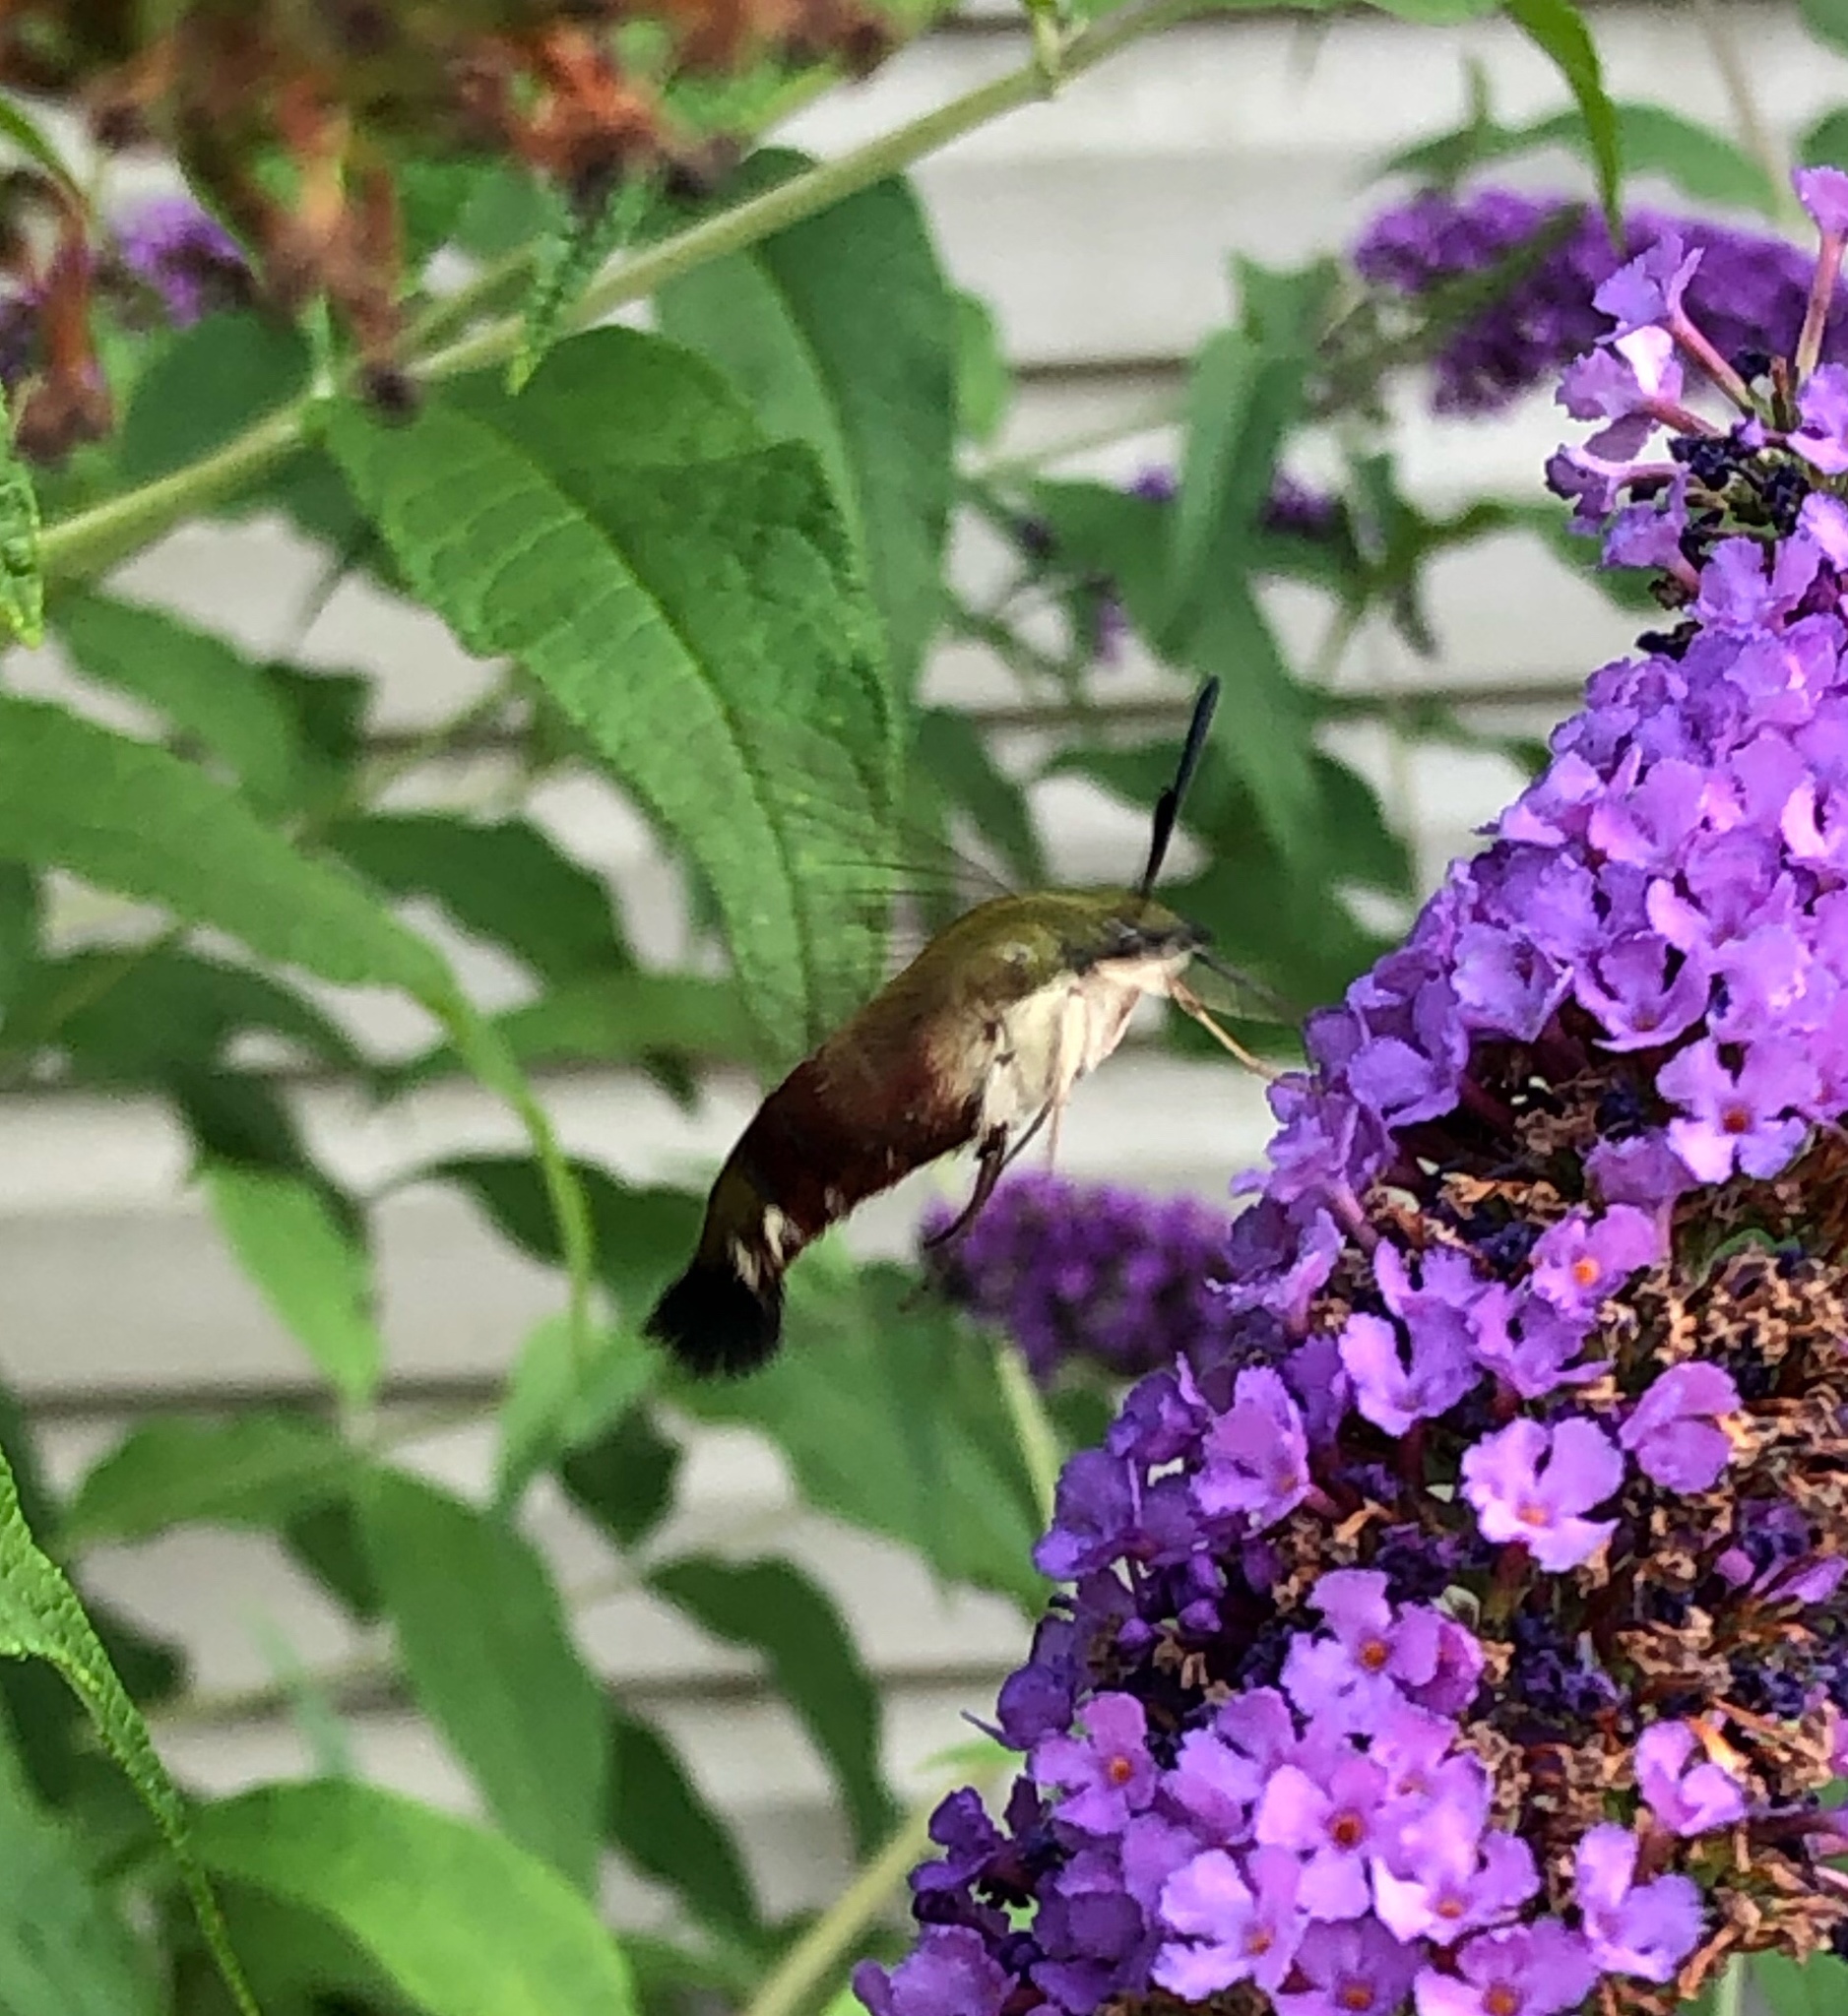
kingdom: Animalia
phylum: Arthropoda
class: Insecta
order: Lepidoptera
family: Sphingidae
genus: Hemaris
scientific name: Hemaris thysbe
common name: Common clear-wing
